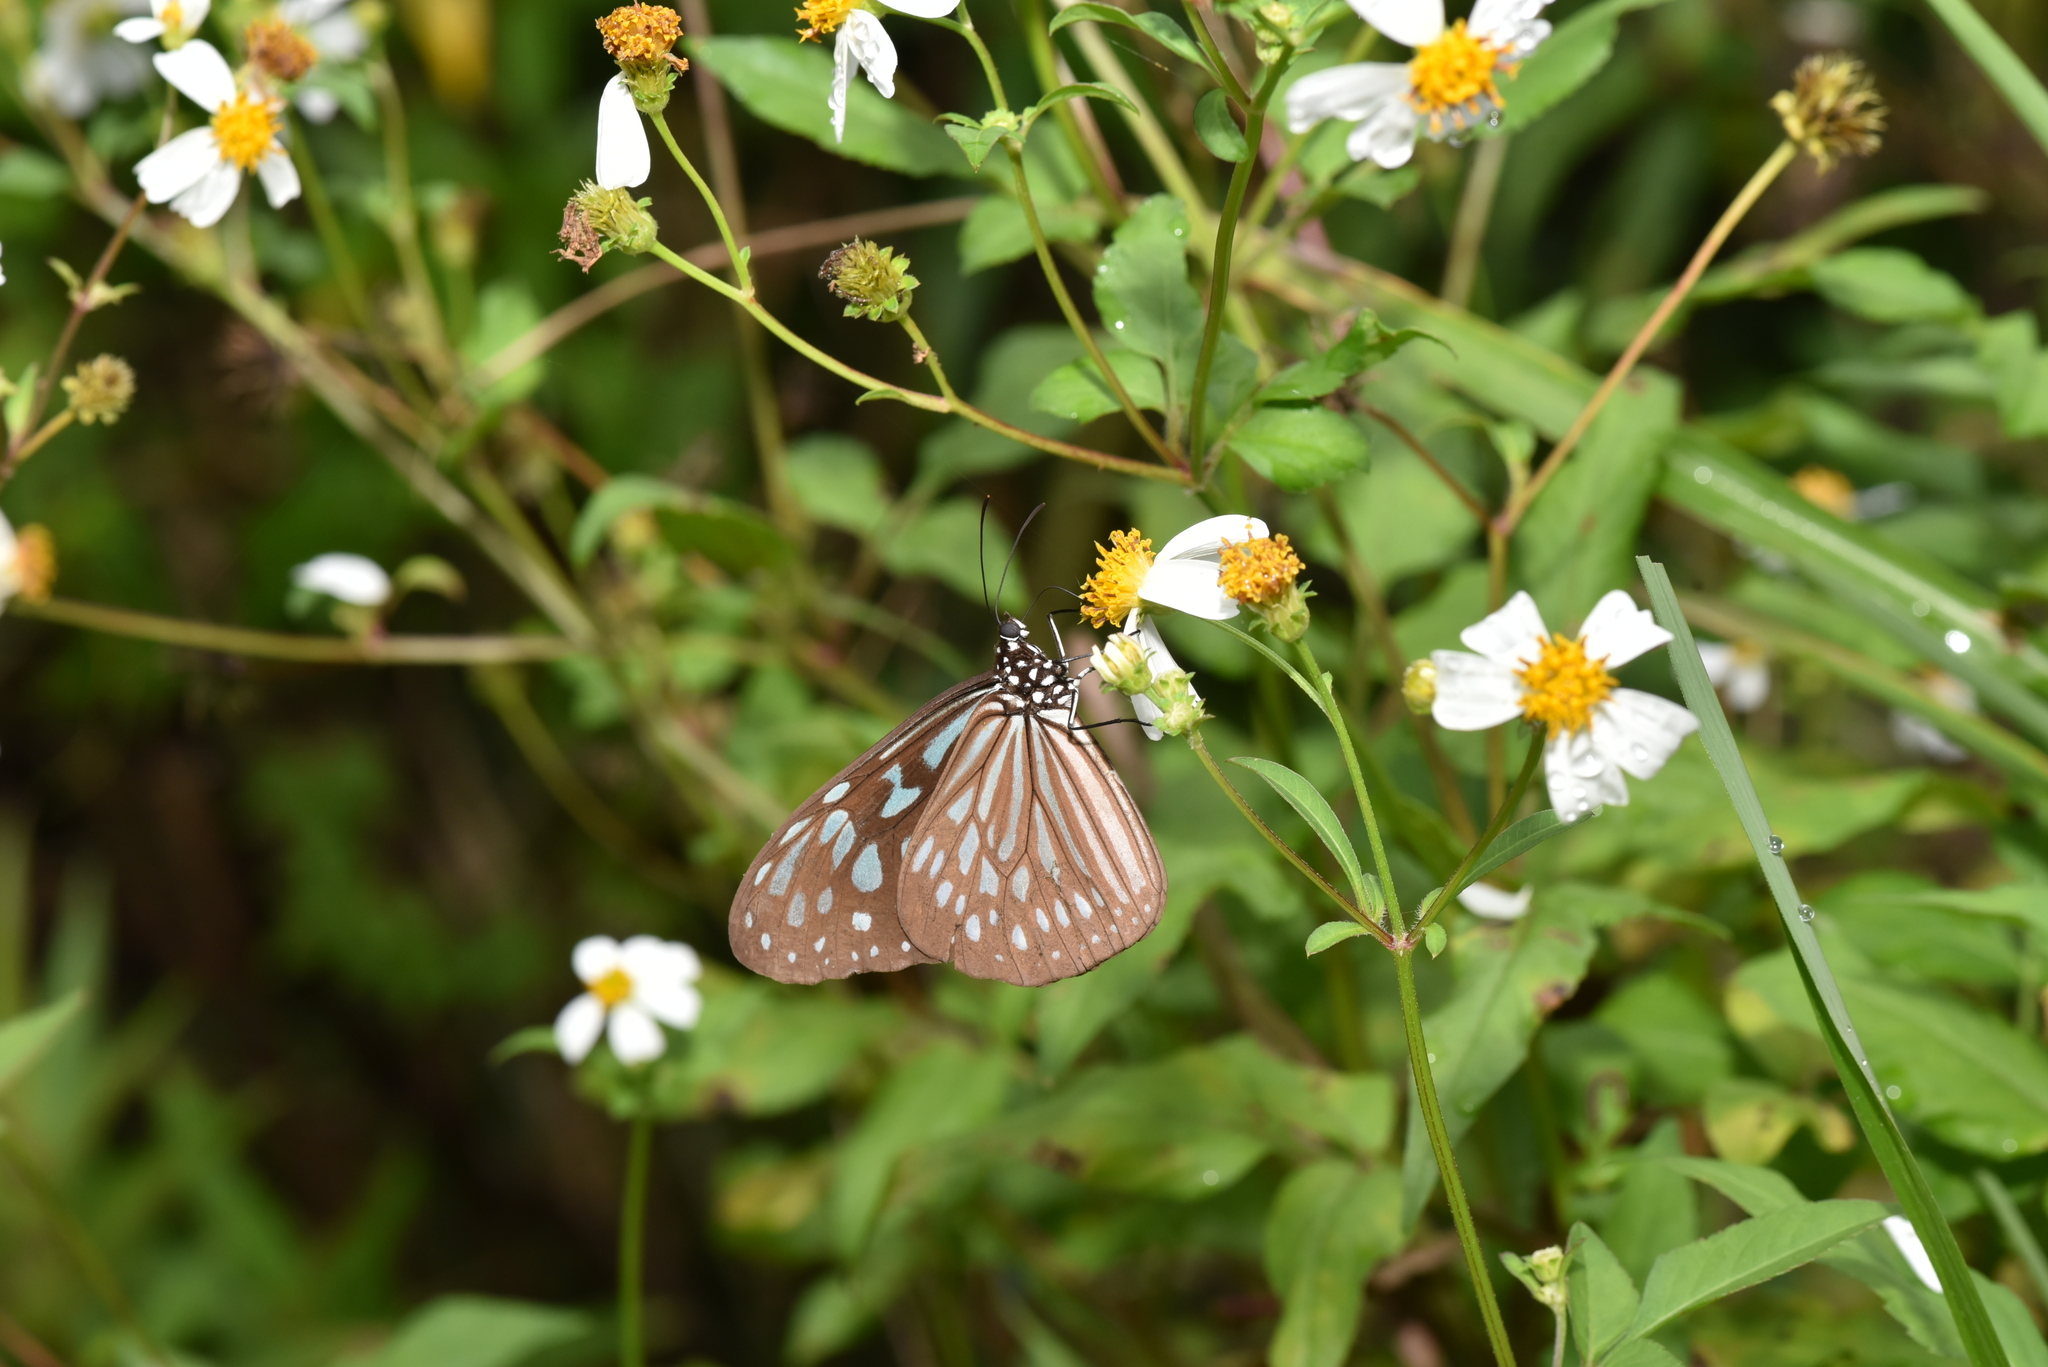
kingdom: Animalia
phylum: Arthropoda
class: Insecta
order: Lepidoptera
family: Nymphalidae
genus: Ideopsis
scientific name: Ideopsis similis
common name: Ceylon blue glassy tiger
